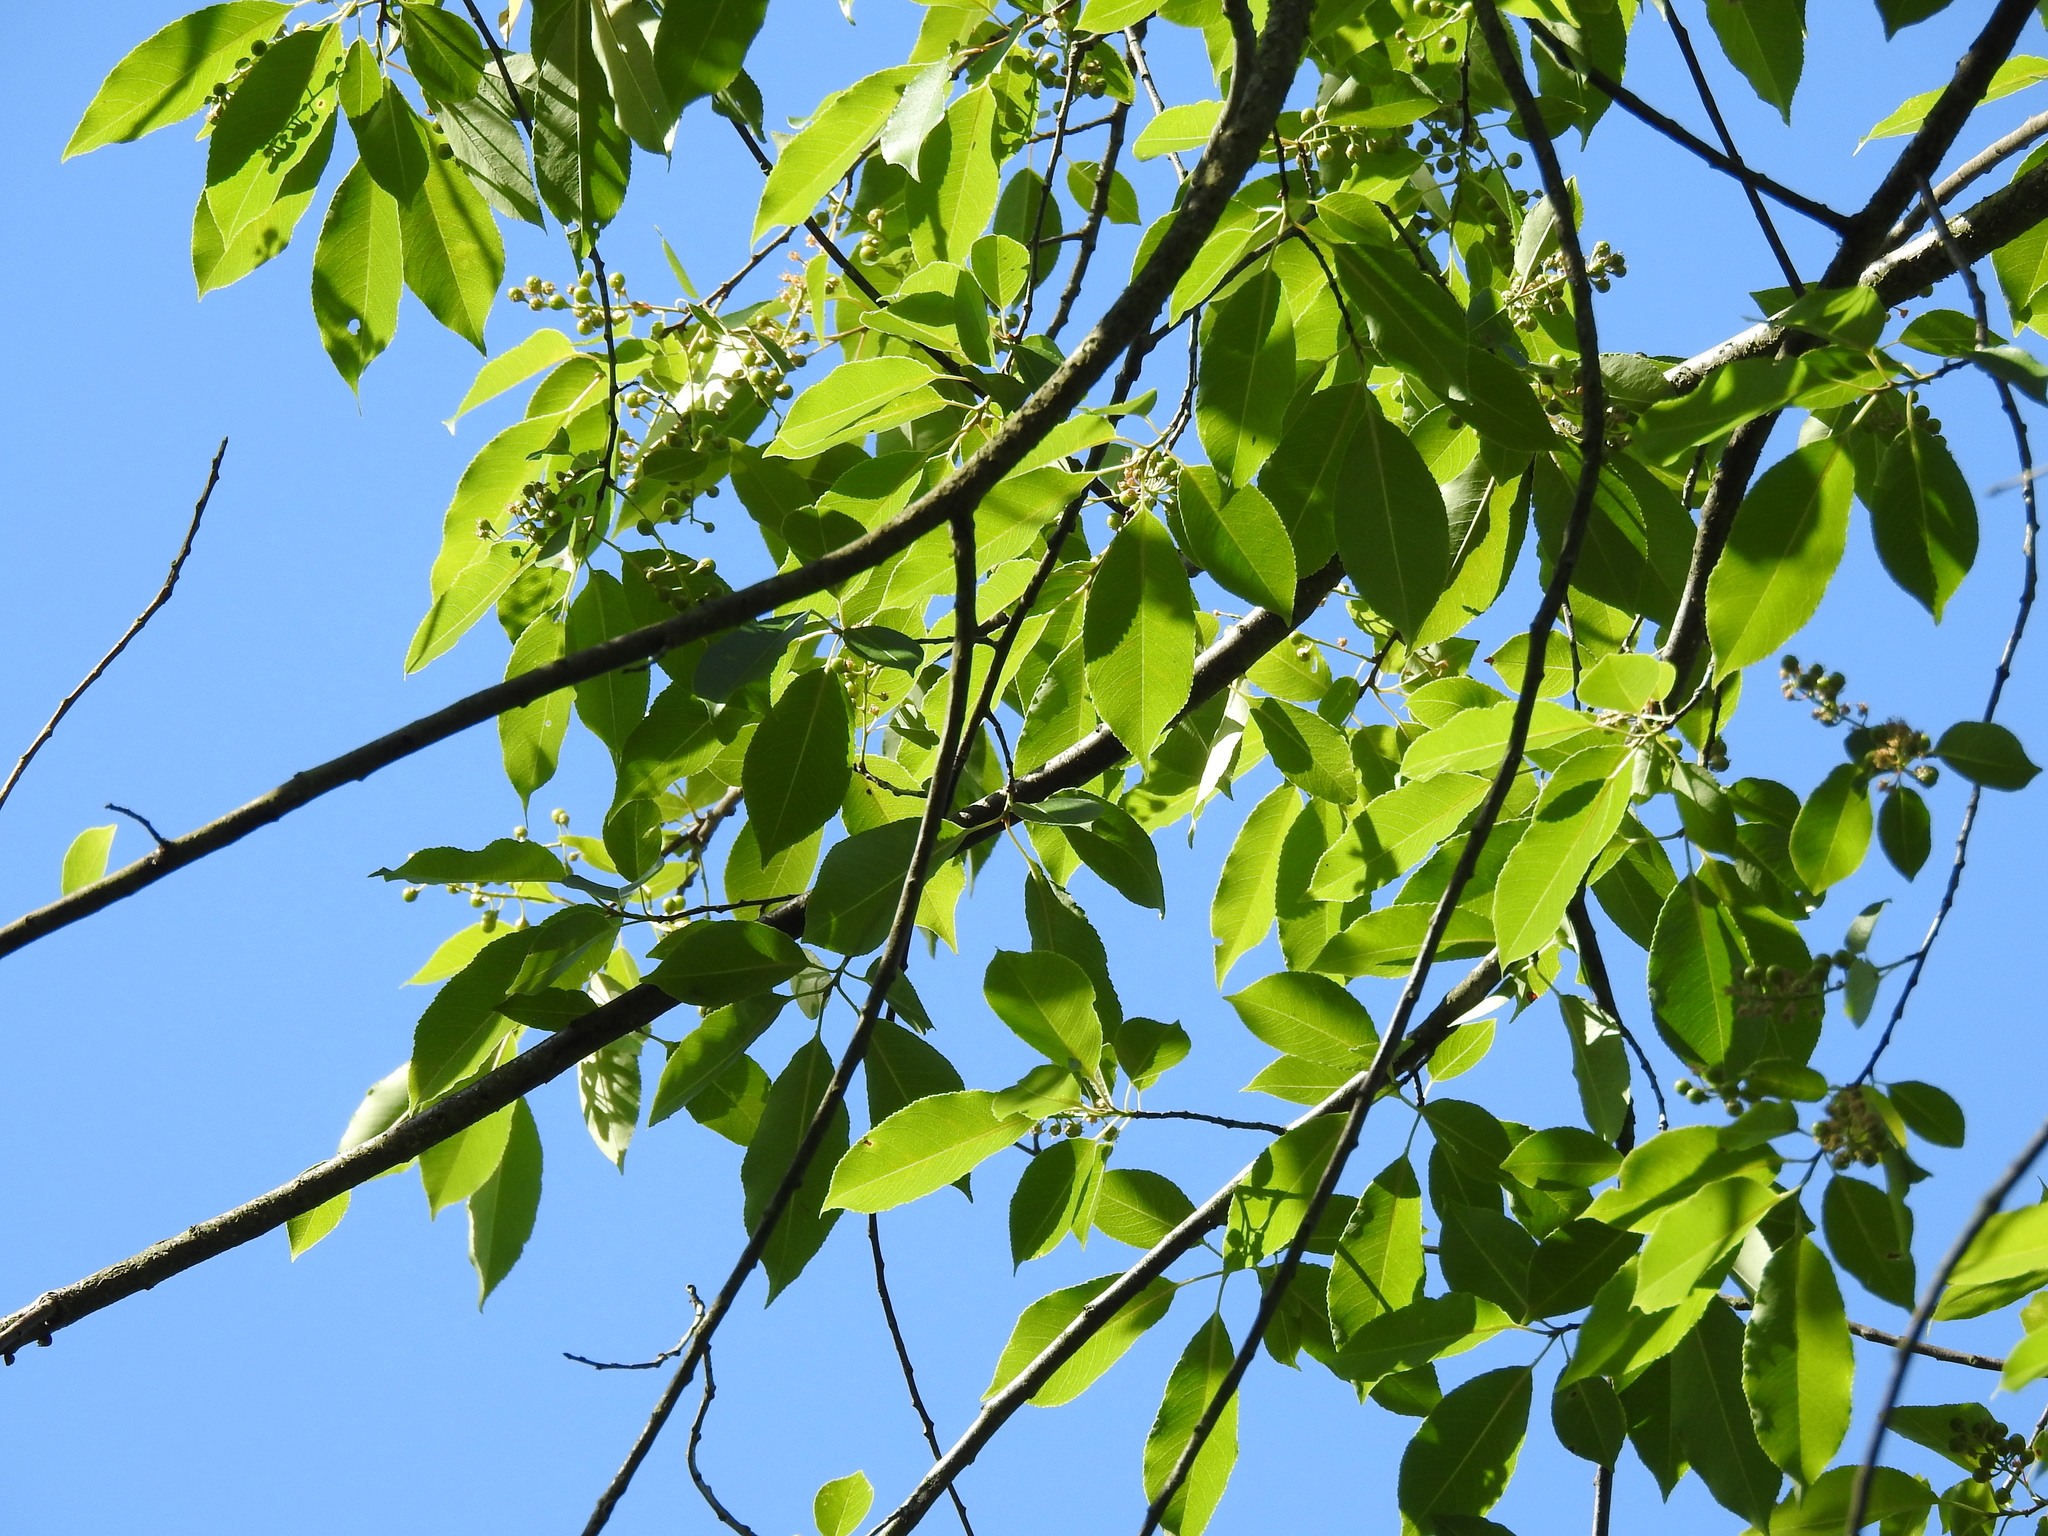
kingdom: Plantae
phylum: Tracheophyta
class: Magnoliopsida
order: Rosales
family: Rosaceae
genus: Prunus
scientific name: Prunus serotina
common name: Black cherry
